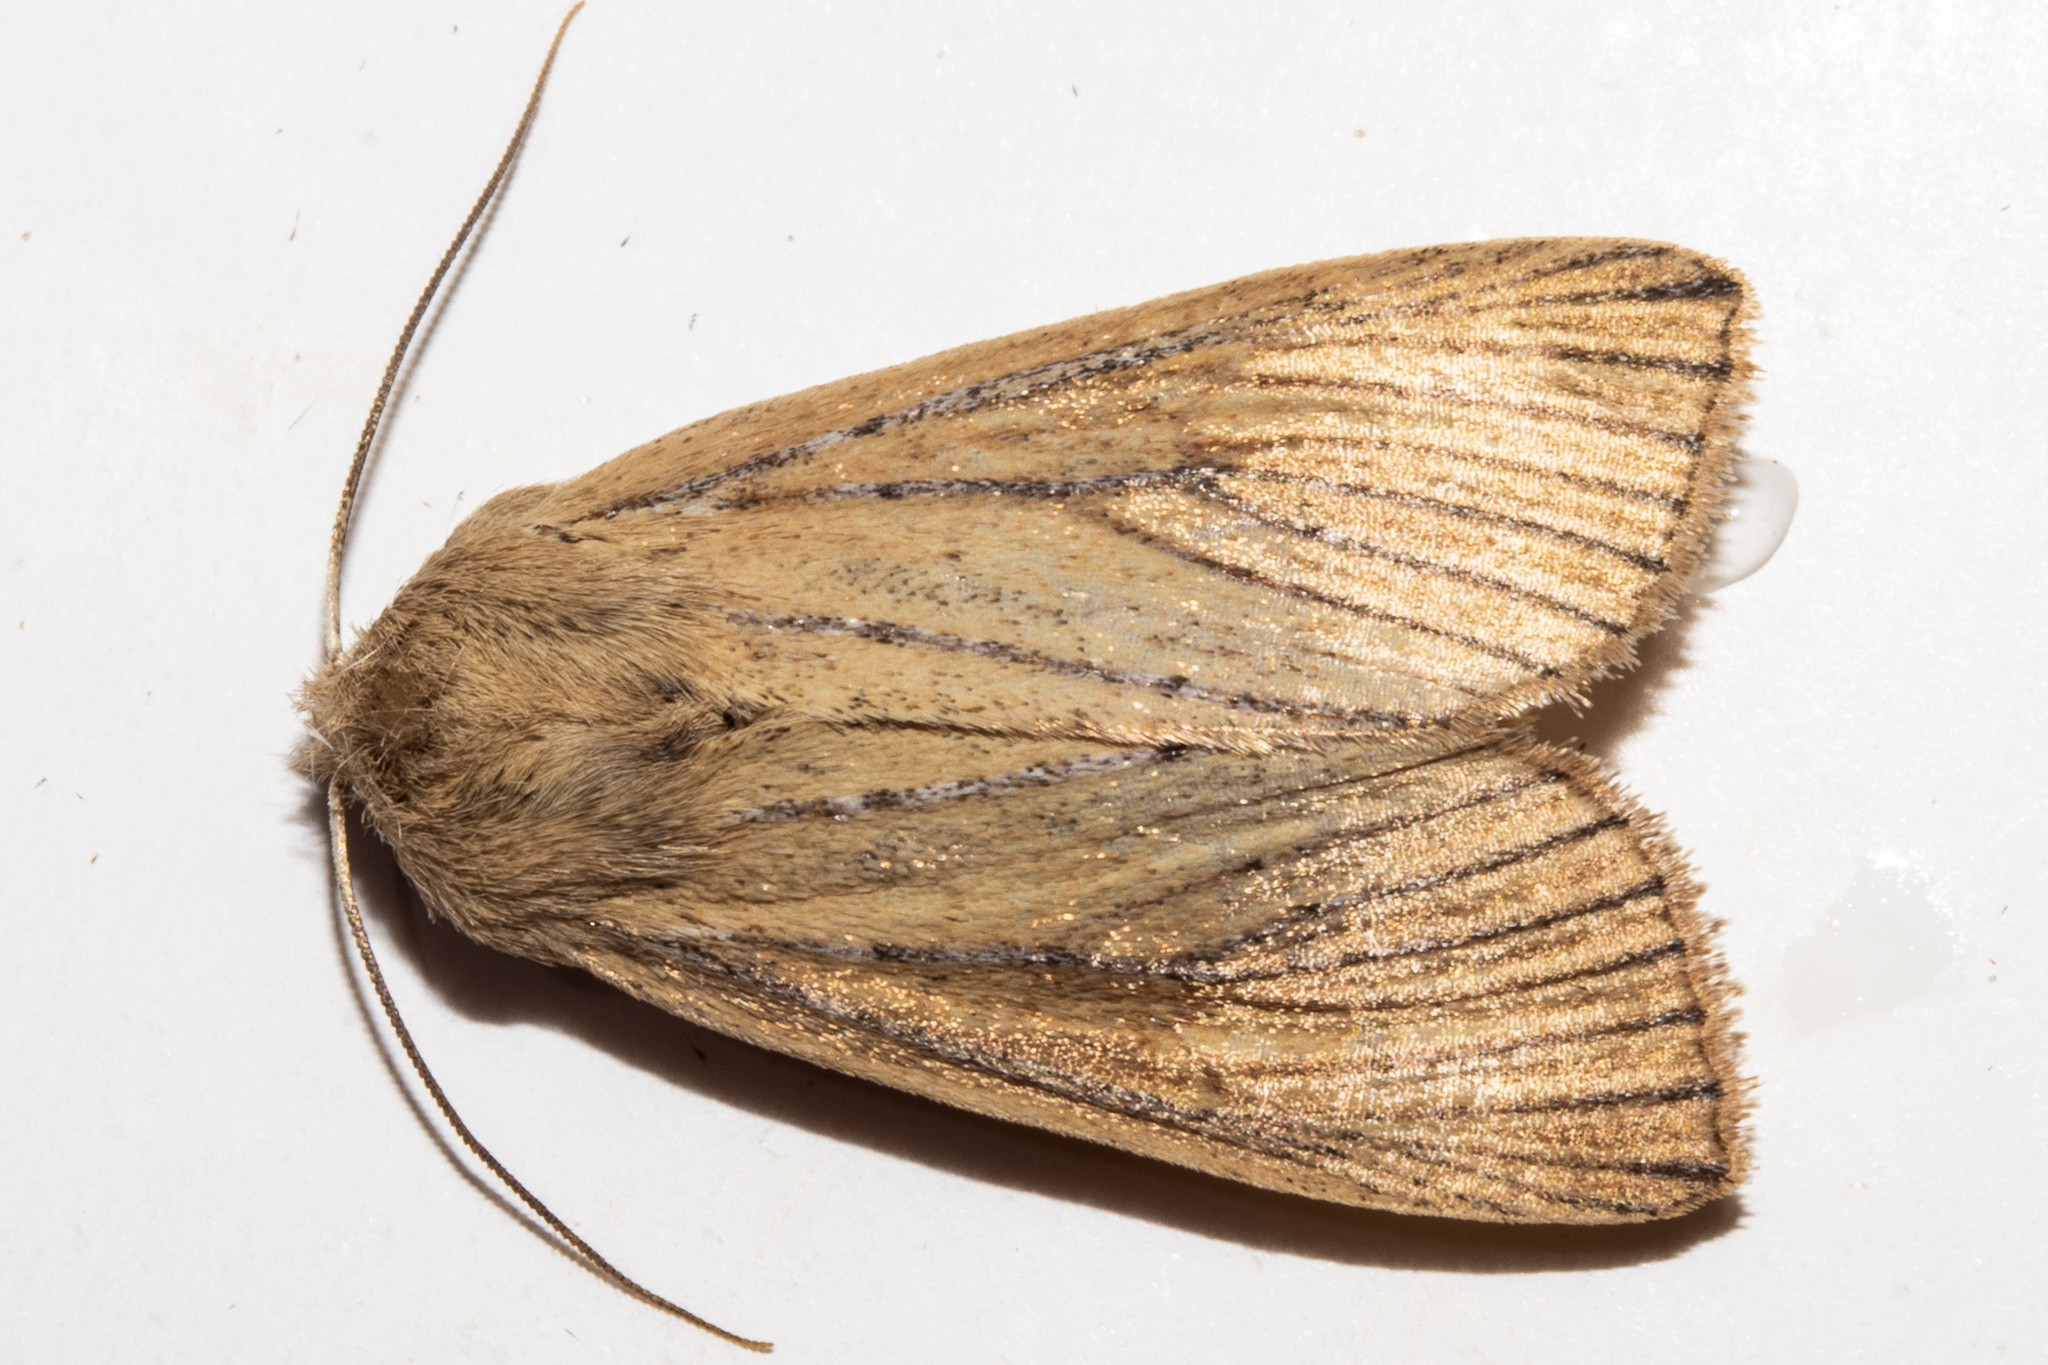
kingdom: Animalia
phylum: Arthropoda
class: Insecta
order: Lepidoptera
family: Noctuidae
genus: Ichneutica
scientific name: Ichneutica cornuta
